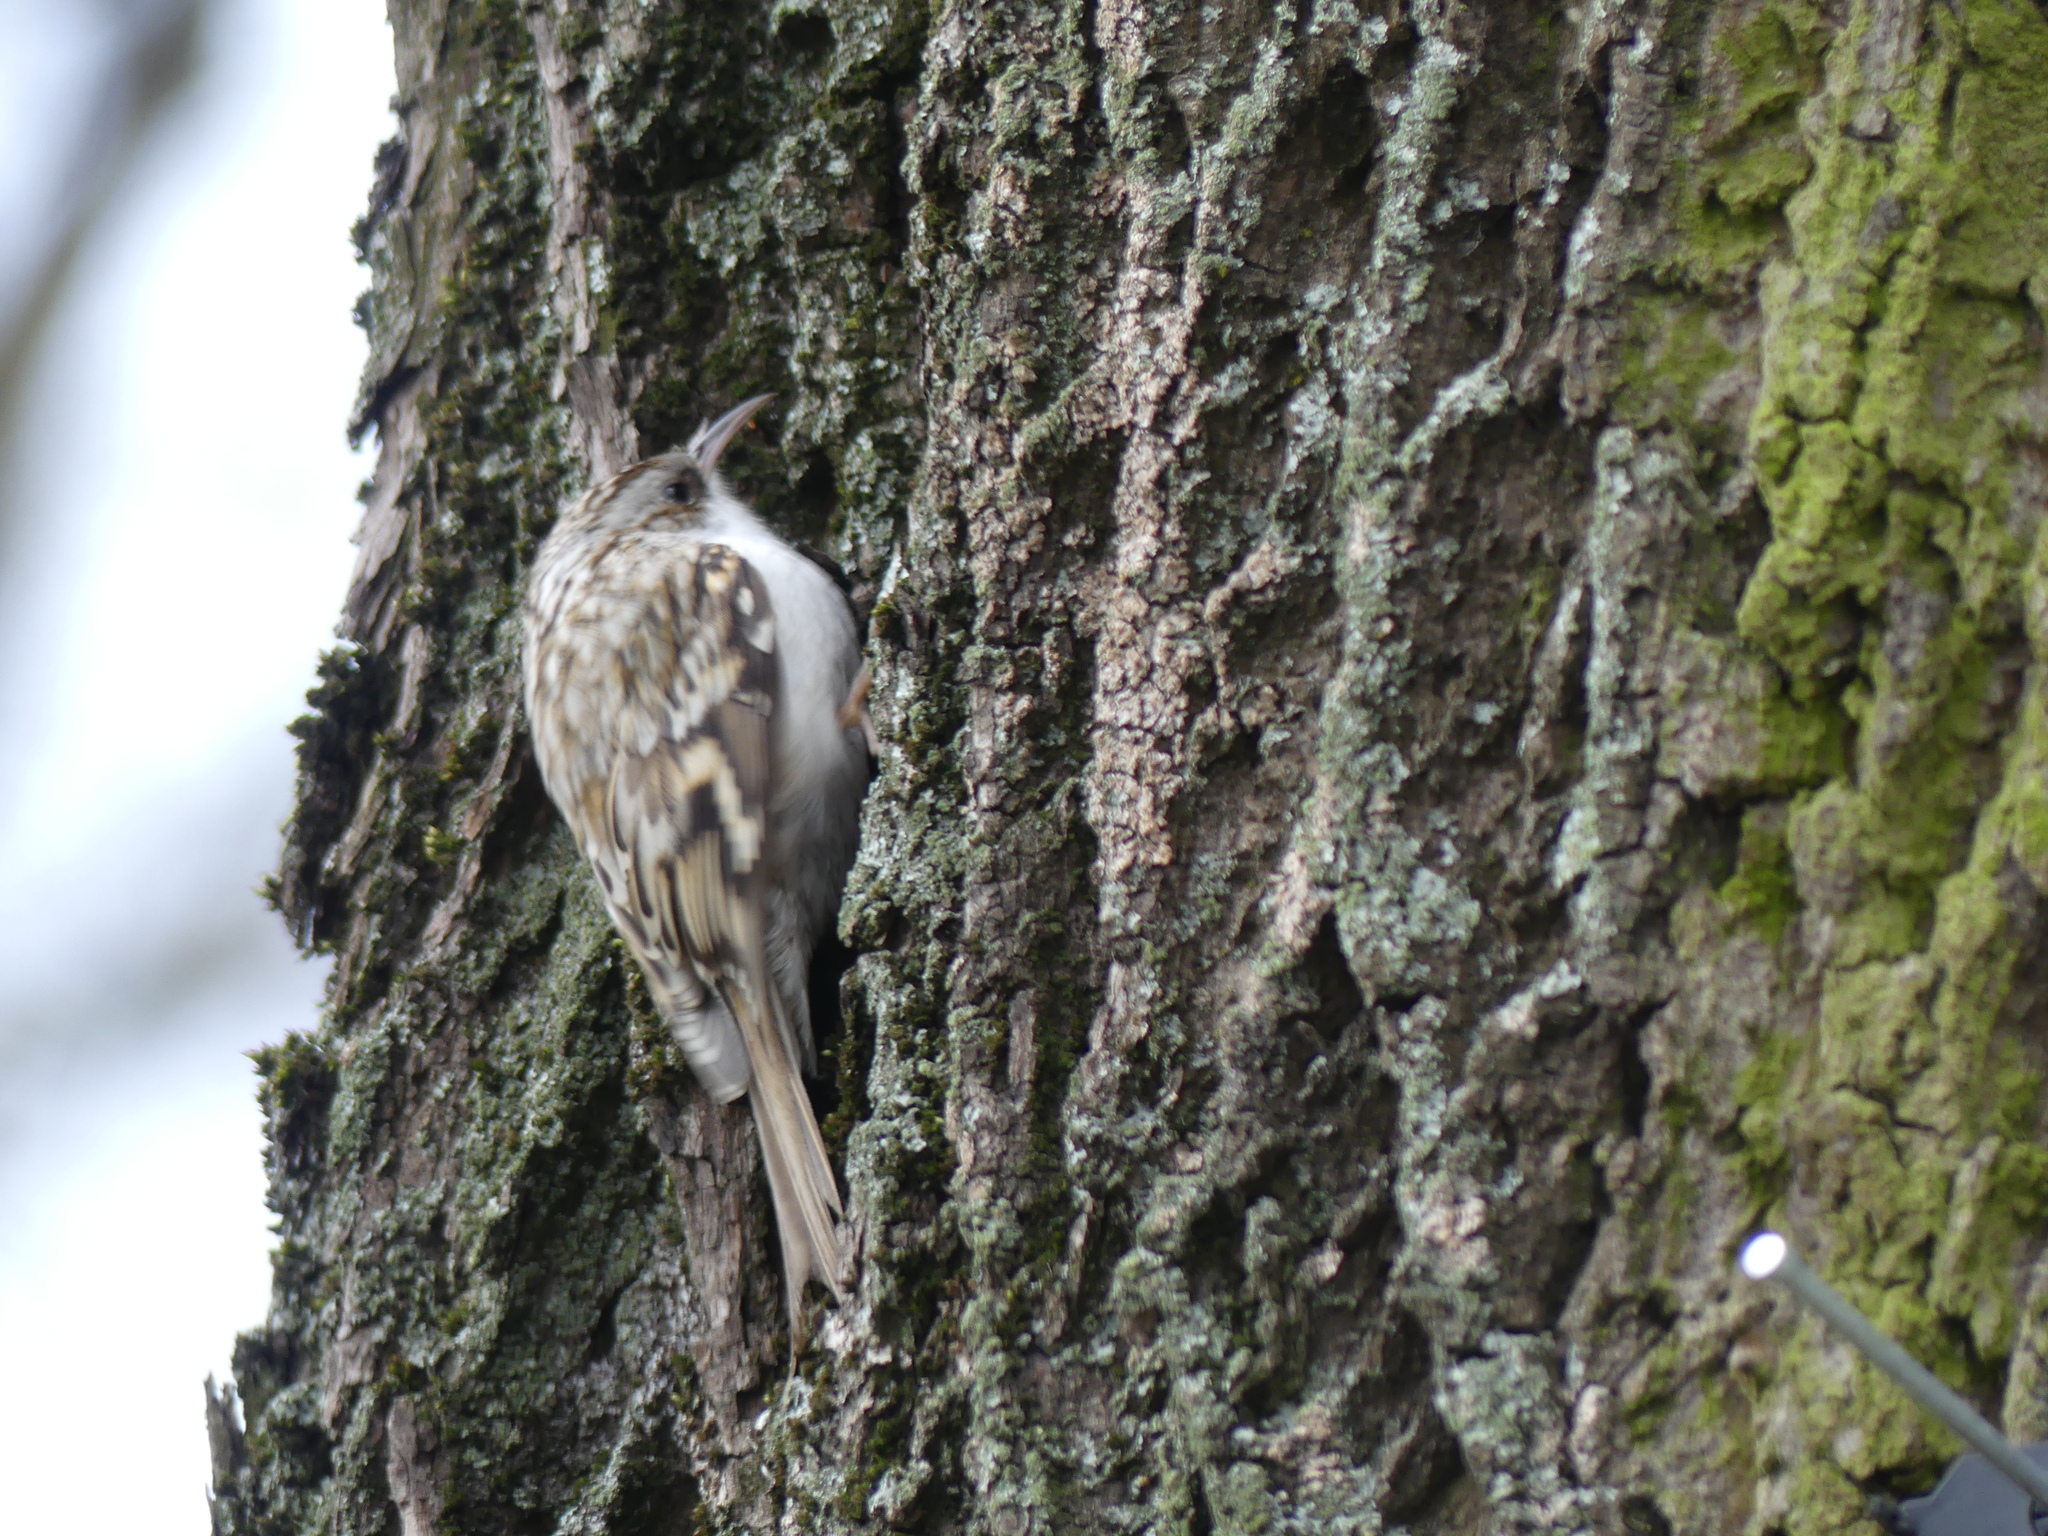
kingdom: Animalia
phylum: Chordata
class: Aves
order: Passeriformes
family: Certhiidae
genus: Certhia
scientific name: Certhia familiaris
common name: Eurasian treecreeper
